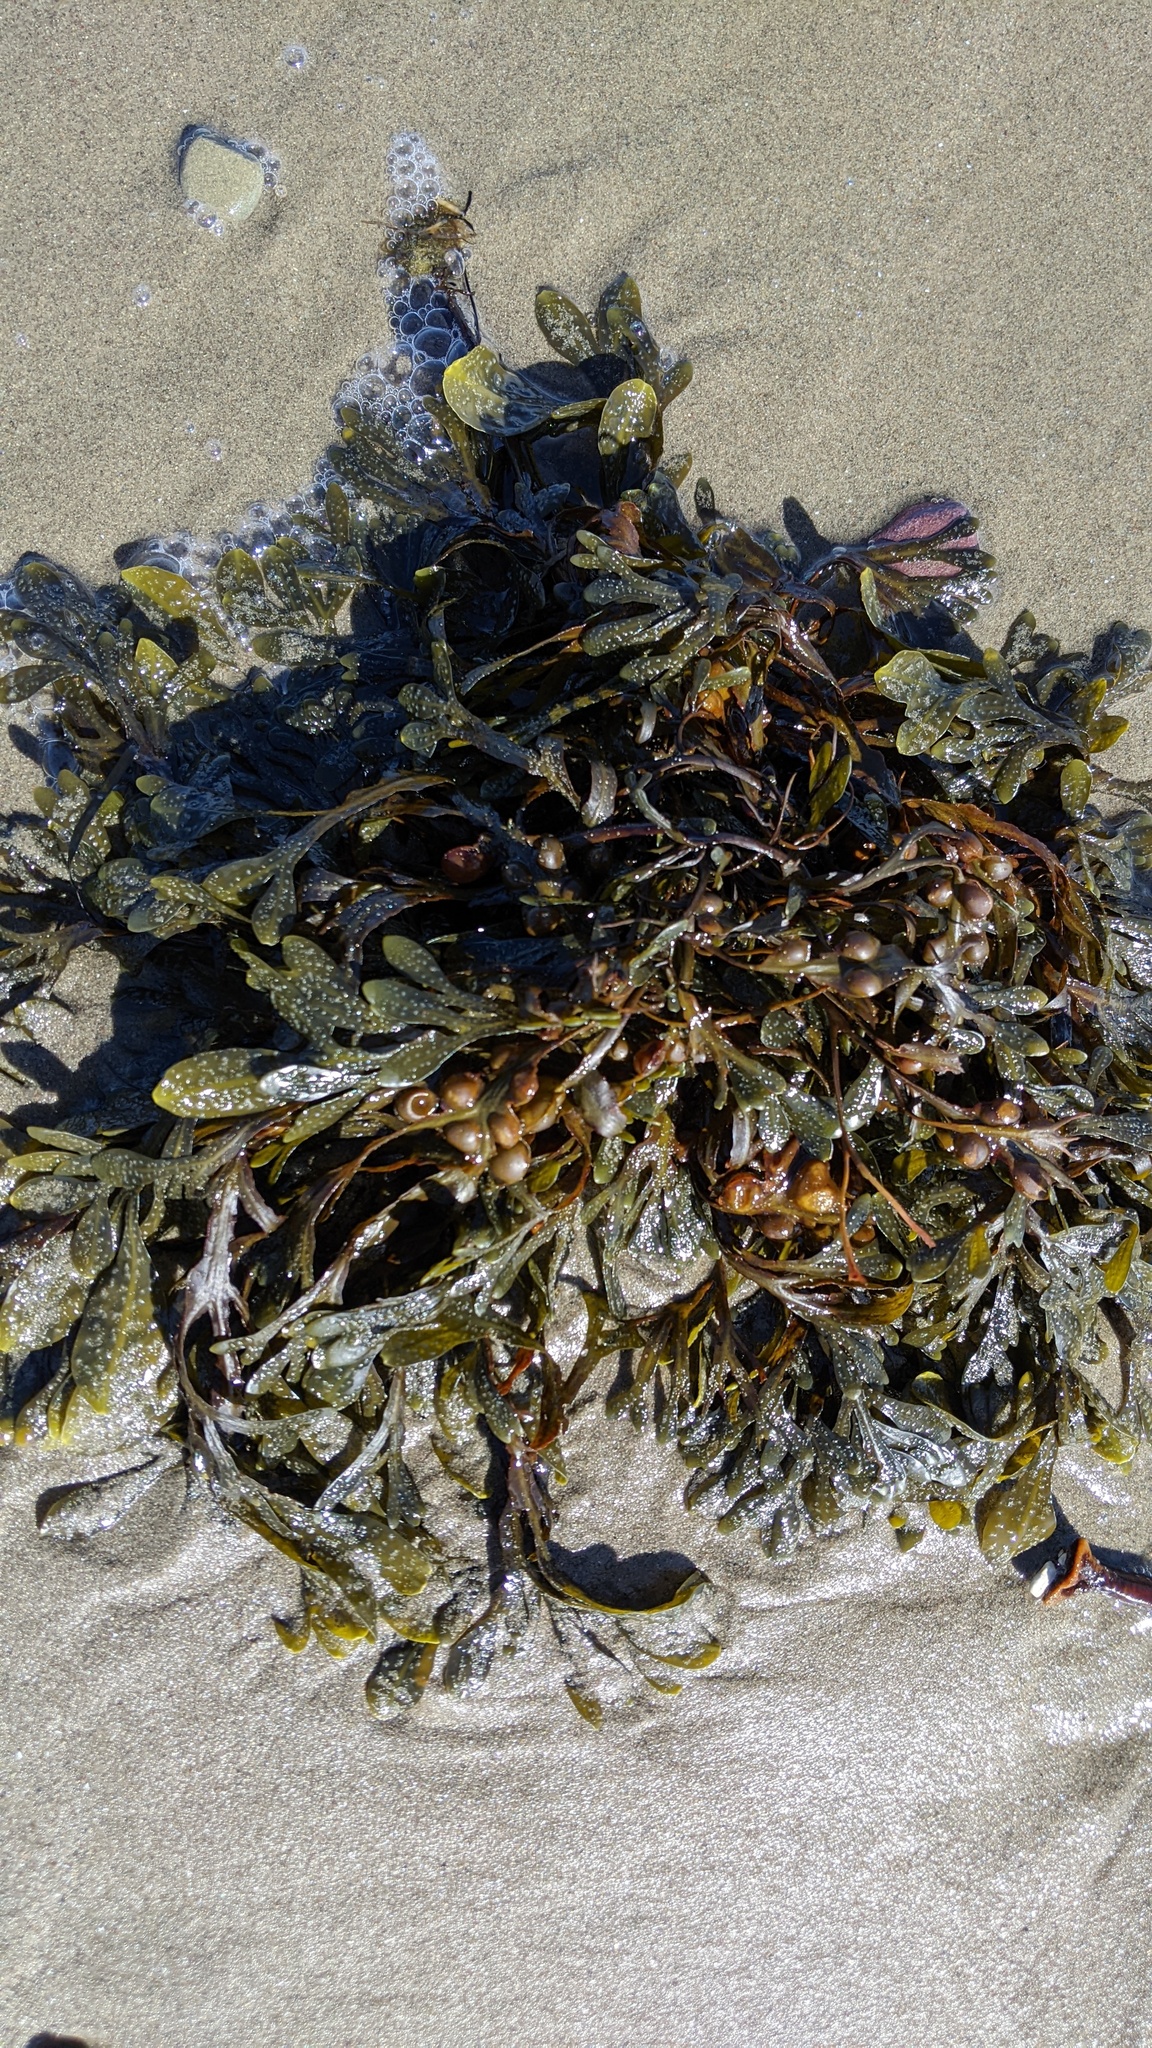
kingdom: Chromista
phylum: Ochrophyta
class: Phaeophyceae
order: Fucales
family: Fucaceae
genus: Fucus
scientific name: Fucus vesiculosus
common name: Bladder wrack
